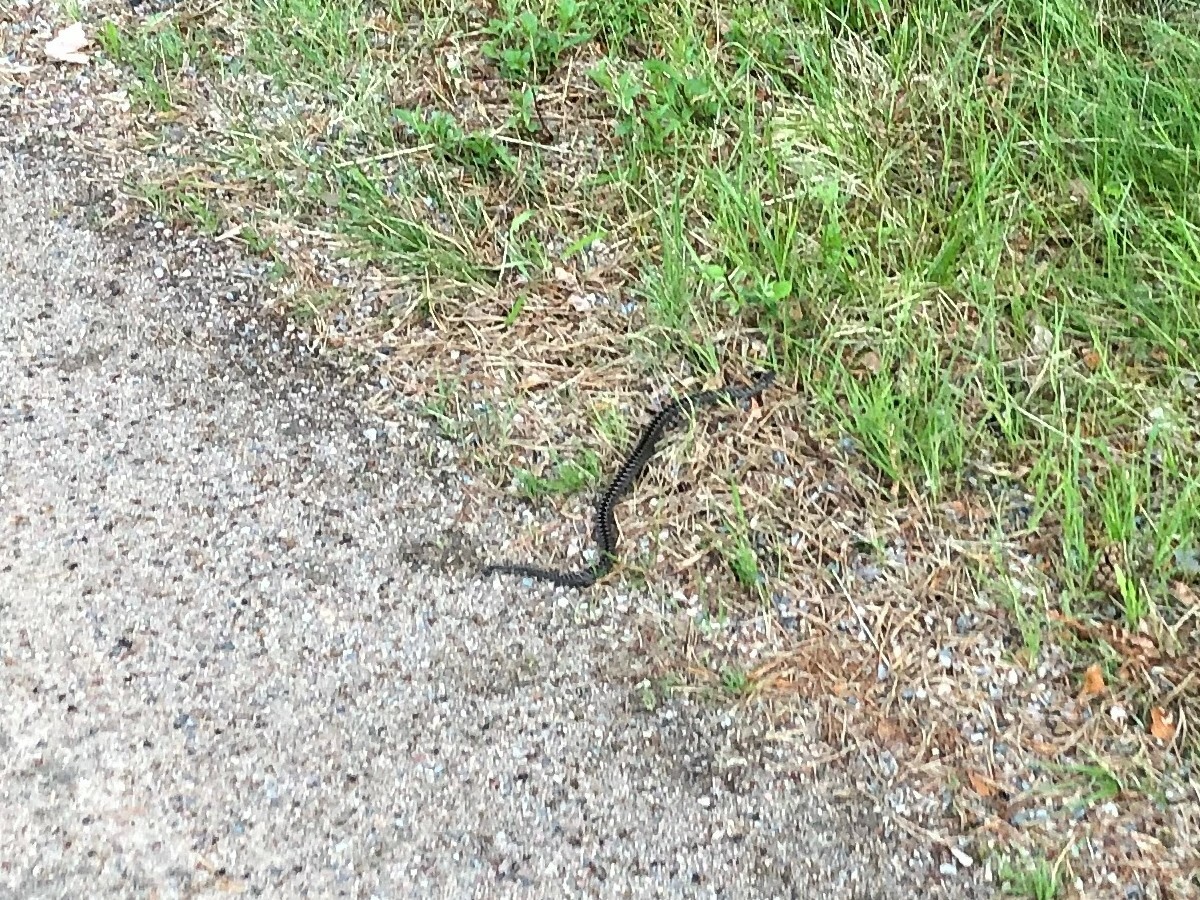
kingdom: Animalia
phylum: Chordata
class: Squamata
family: Viperidae
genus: Vipera
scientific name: Vipera berus
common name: Adder
